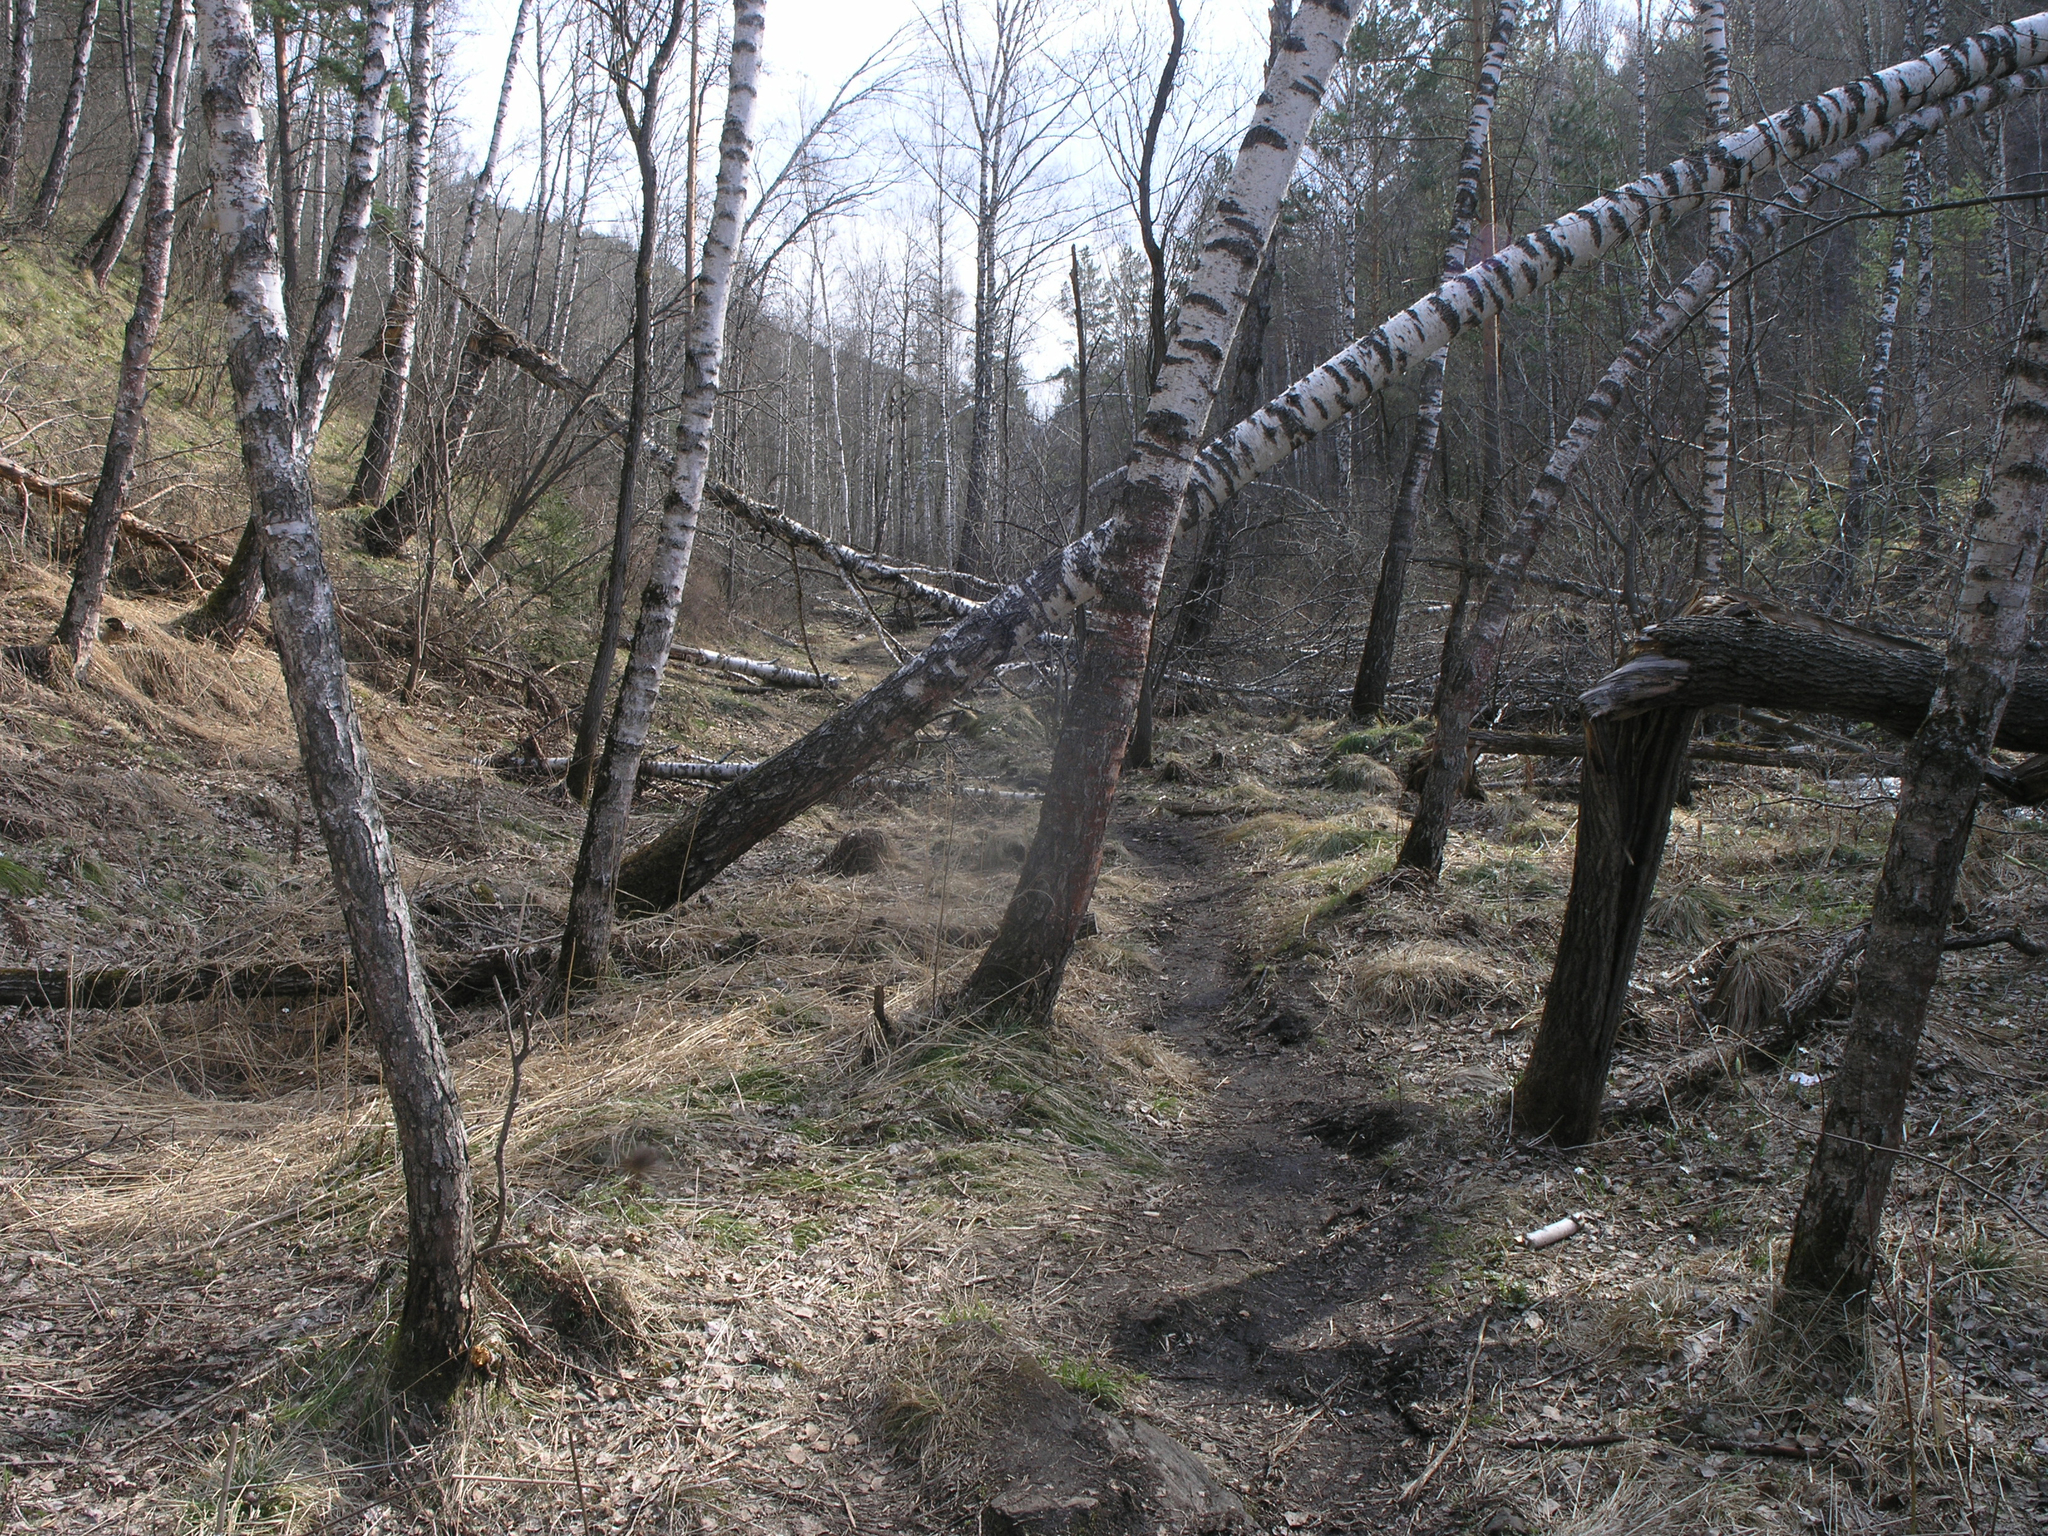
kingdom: Plantae
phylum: Tracheophyta
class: Magnoliopsida
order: Fagales
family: Betulaceae
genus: Betula
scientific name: Betula pendula
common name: Silver birch
